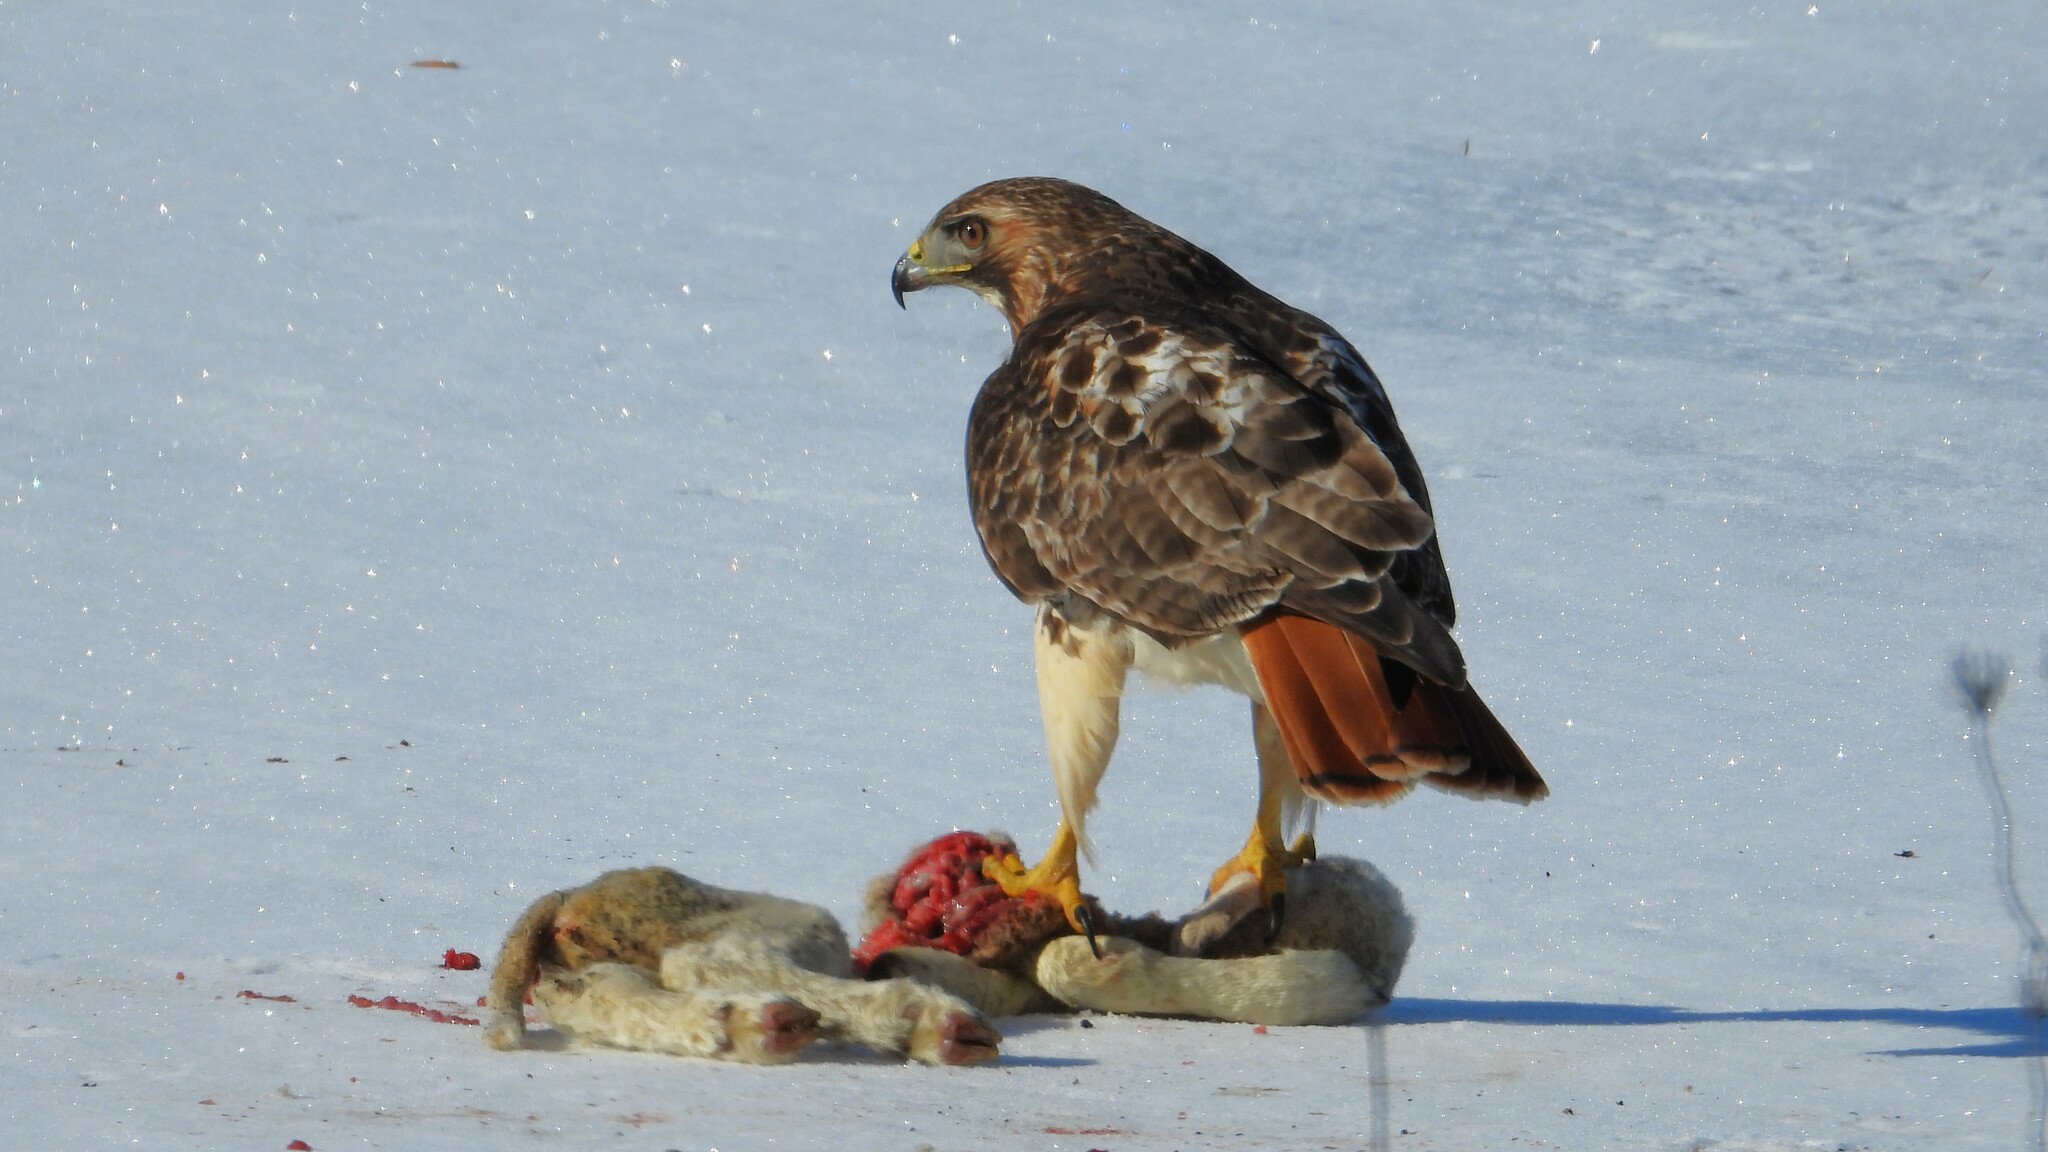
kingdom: Animalia
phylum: Chordata
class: Aves
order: Accipitriformes
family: Accipitridae
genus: Buteo
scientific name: Buteo jamaicensis
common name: Red-tailed hawk
